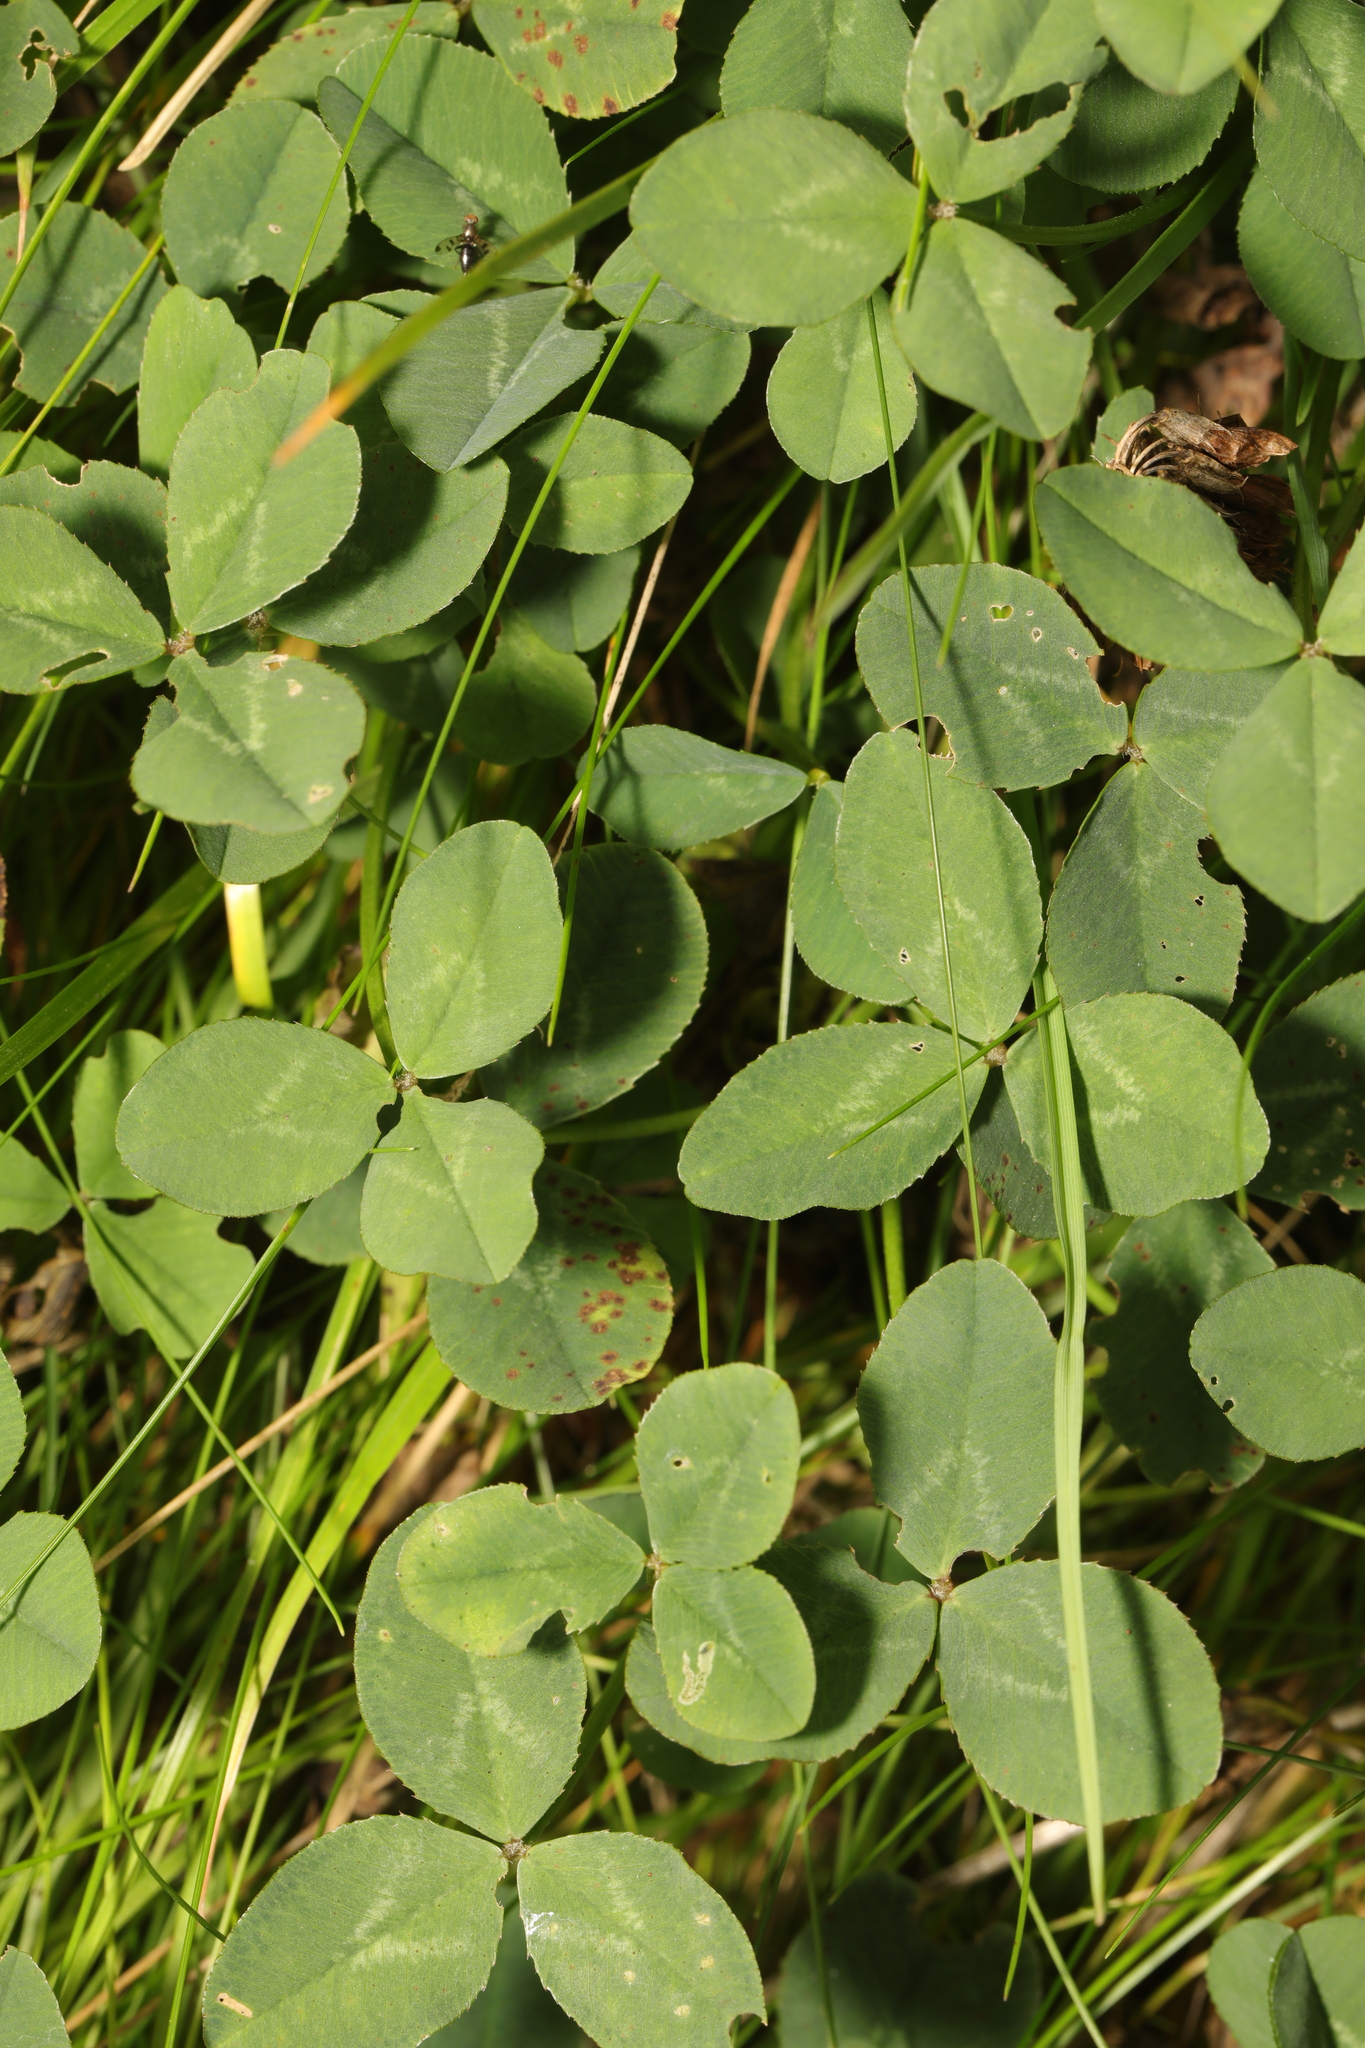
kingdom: Plantae
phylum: Tracheophyta
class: Magnoliopsida
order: Fabales
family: Fabaceae
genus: Trifolium
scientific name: Trifolium repens
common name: White clover
